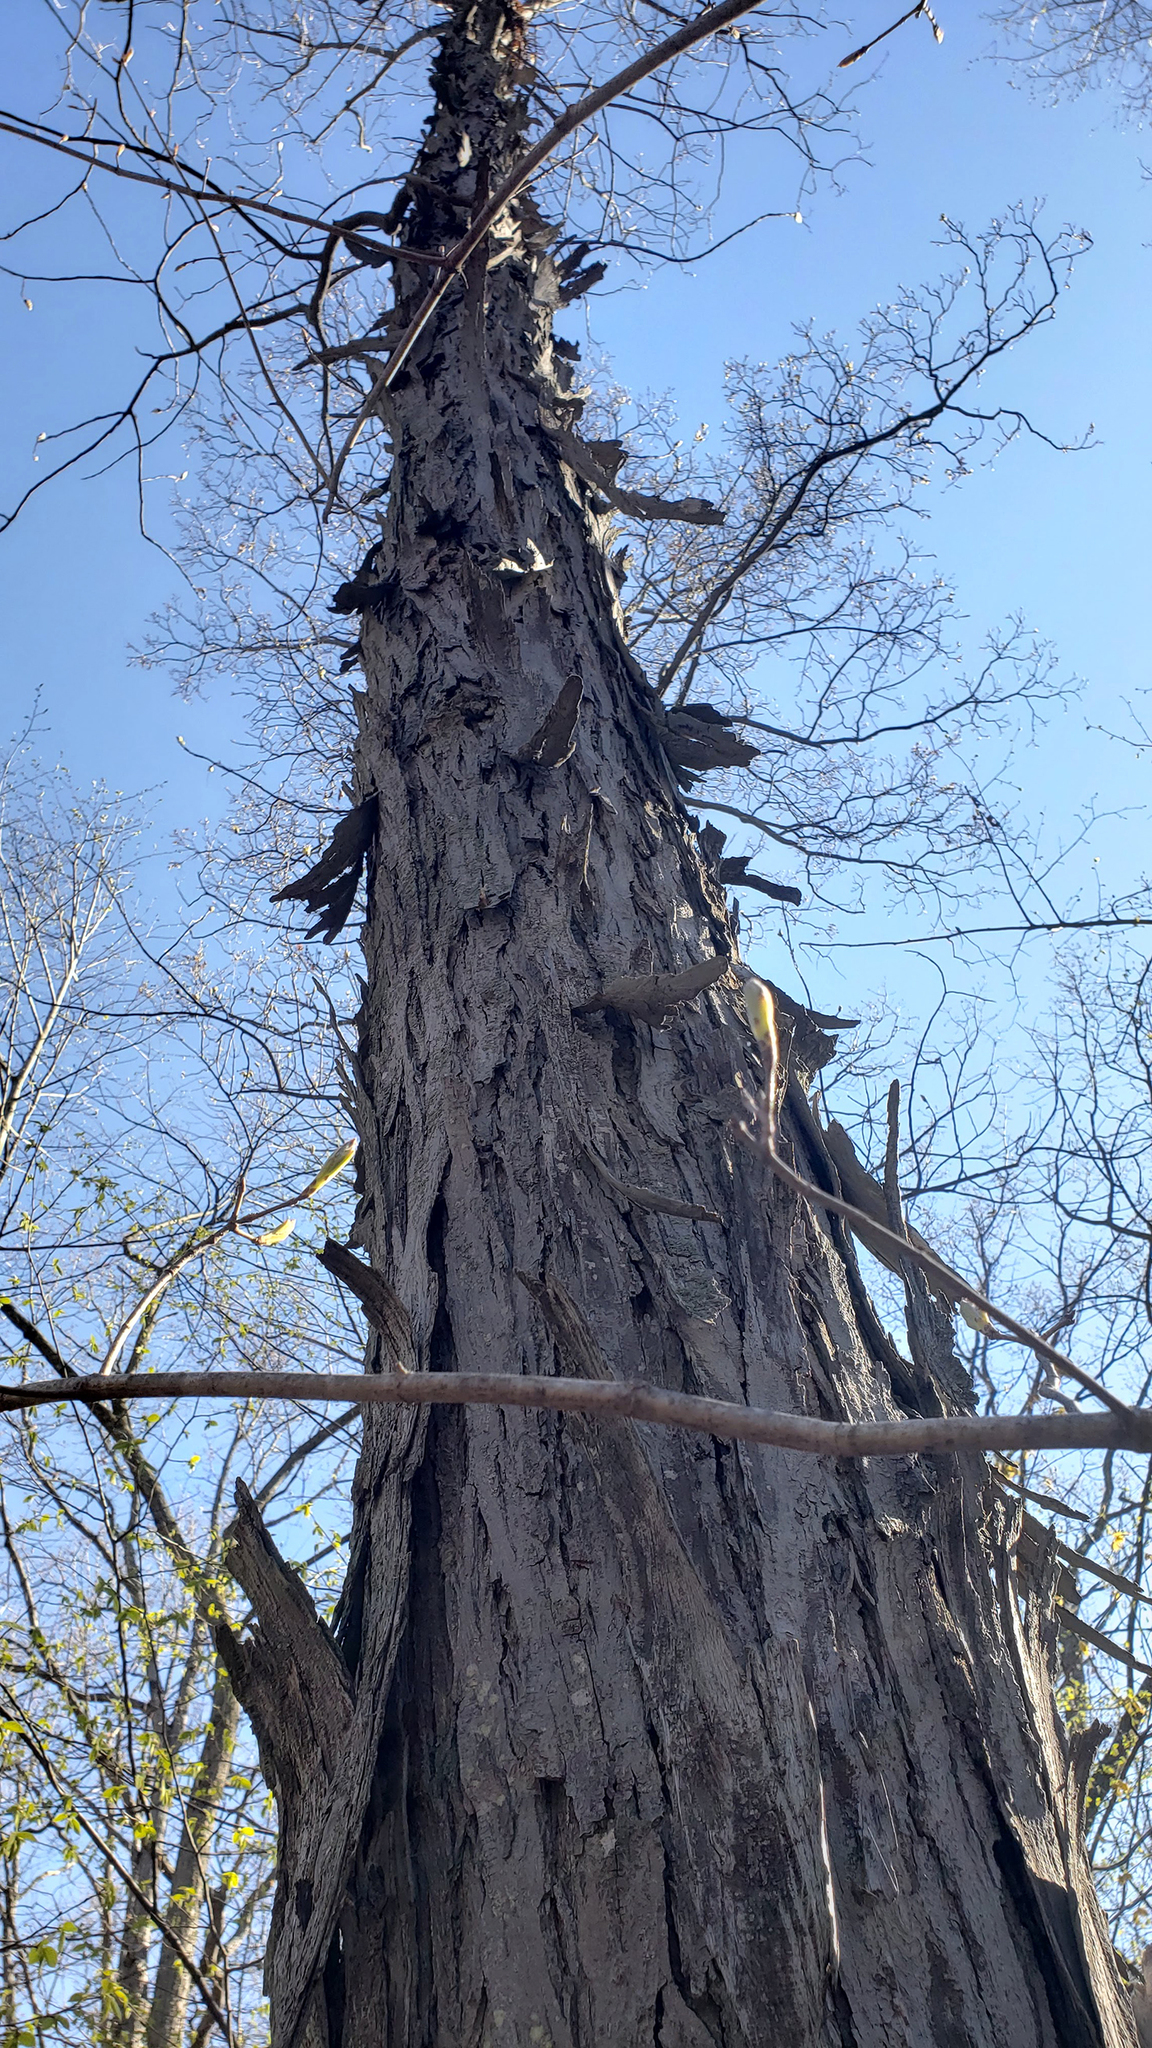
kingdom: Plantae
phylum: Tracheophyta
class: Magnoliopsida
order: Fagales
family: Juglandaceae
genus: Carya
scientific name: Carya ovata
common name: Shagbark hickory
